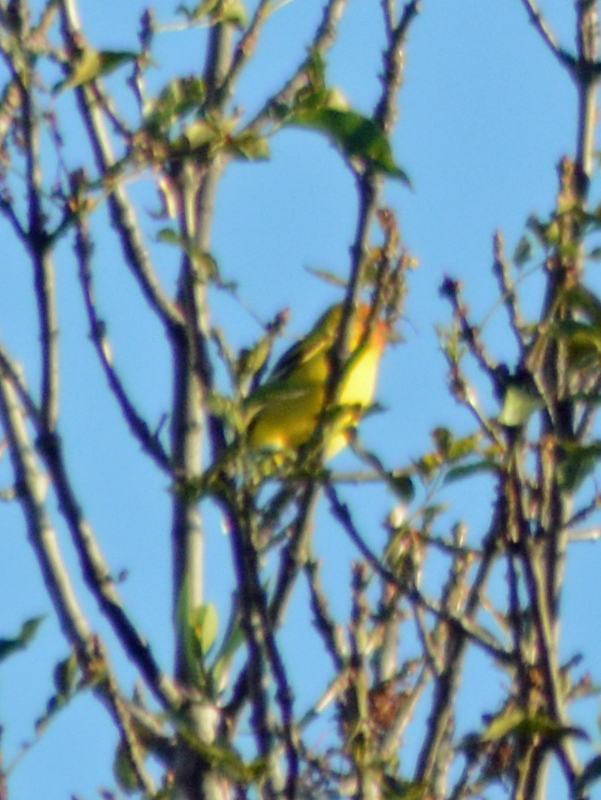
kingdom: Animalia
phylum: Chordata
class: Aves
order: Passeriformes
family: Cardinalidae
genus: Piranga
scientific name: Piranga ludoviciana
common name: Western tanager
